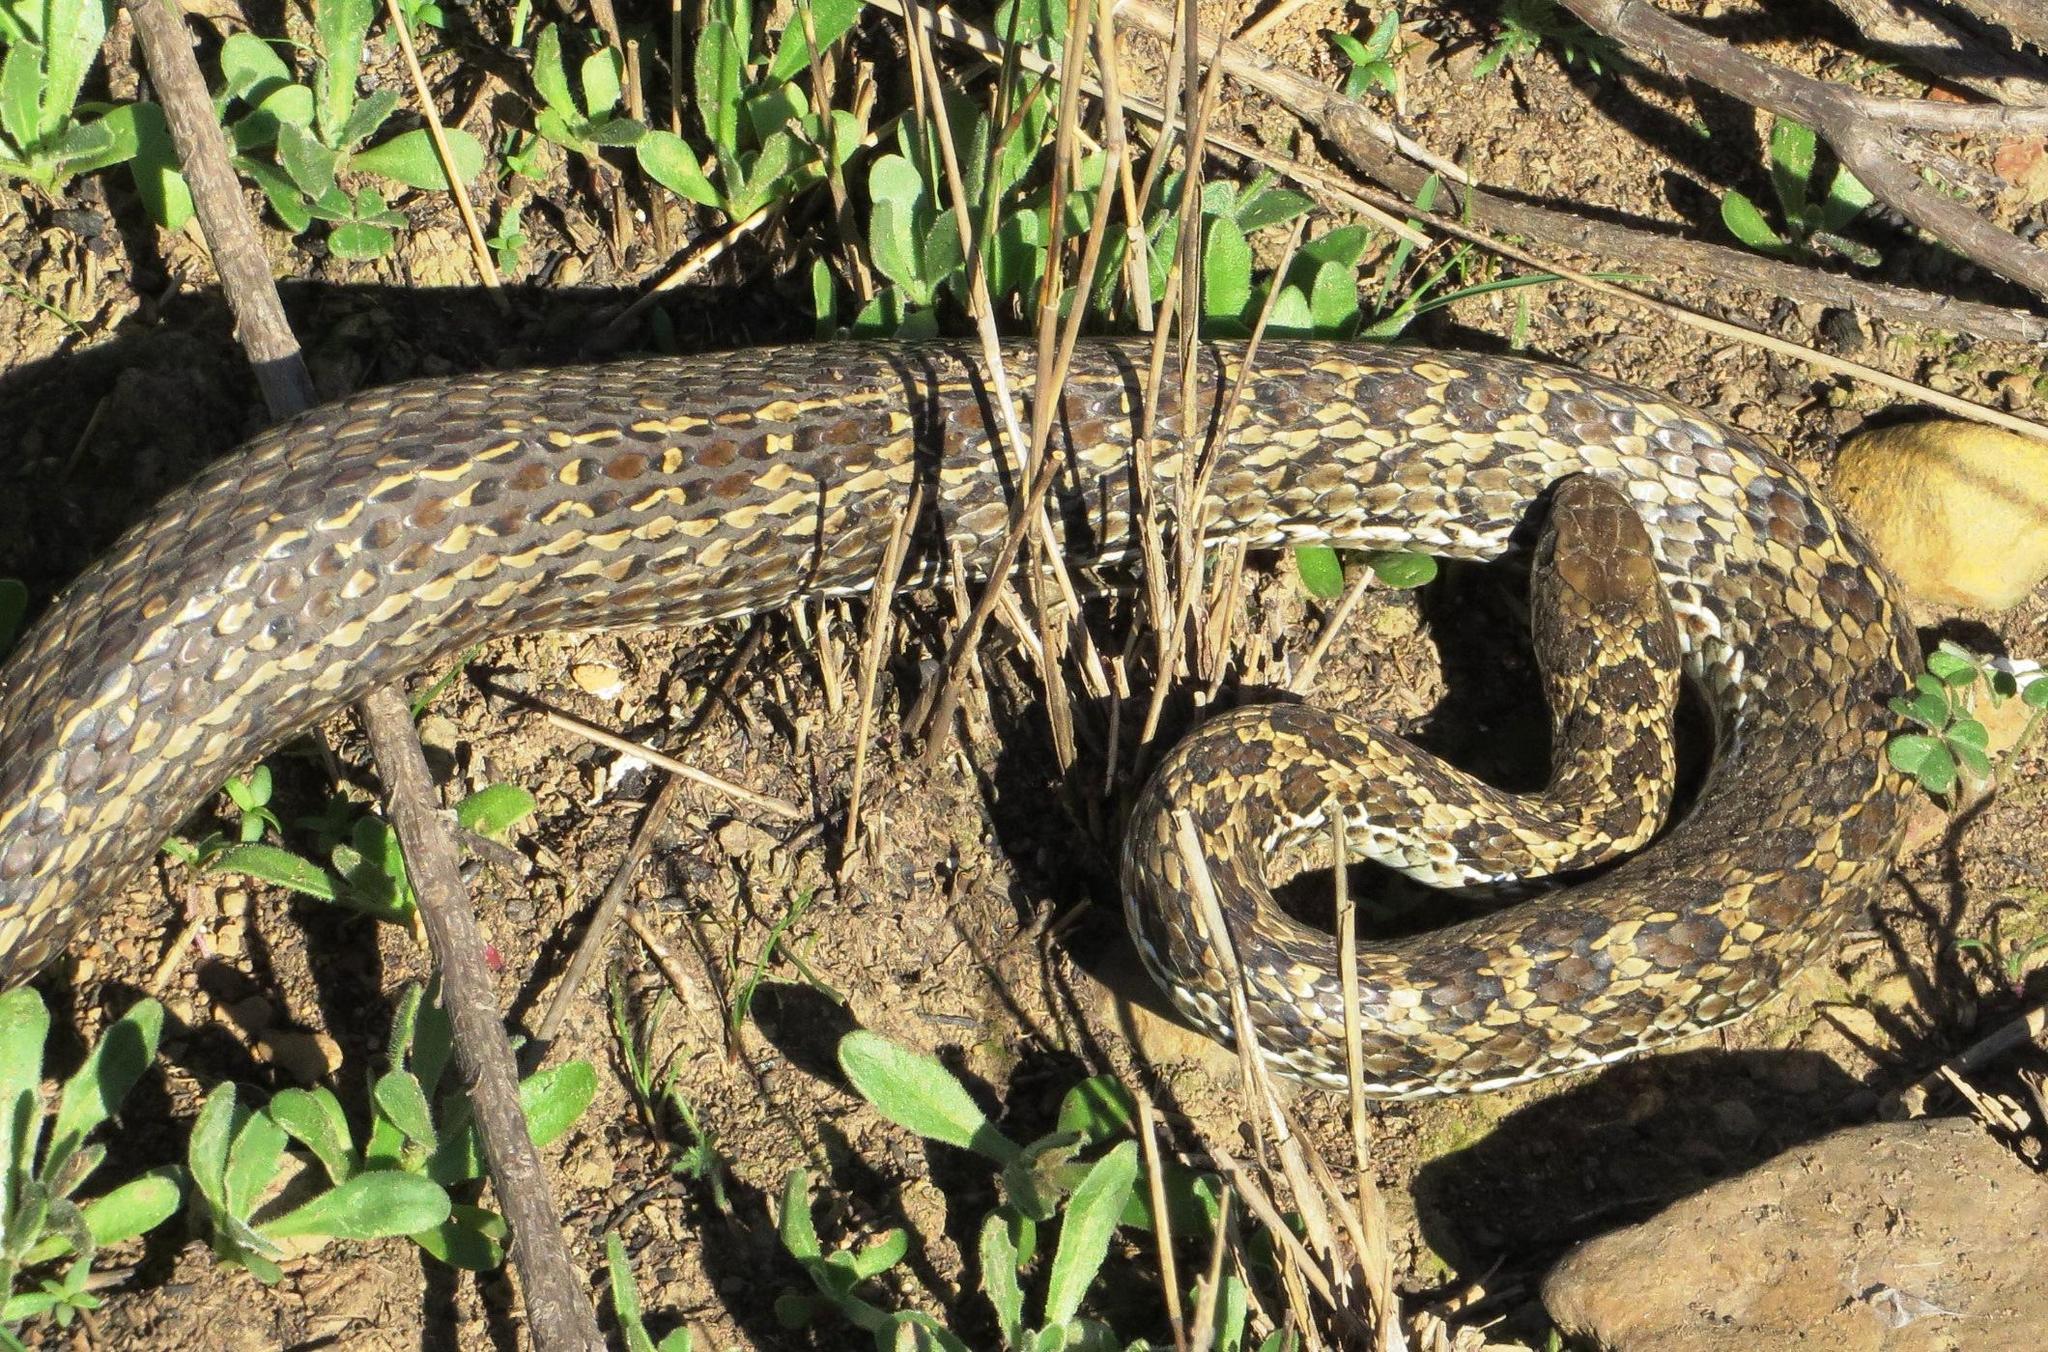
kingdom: Animalia
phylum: Chordata
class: Squamata
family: Psammophiidae
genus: Psammophylax
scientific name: Psammophylax rhombeatus
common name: Rhombic skaapsteker
